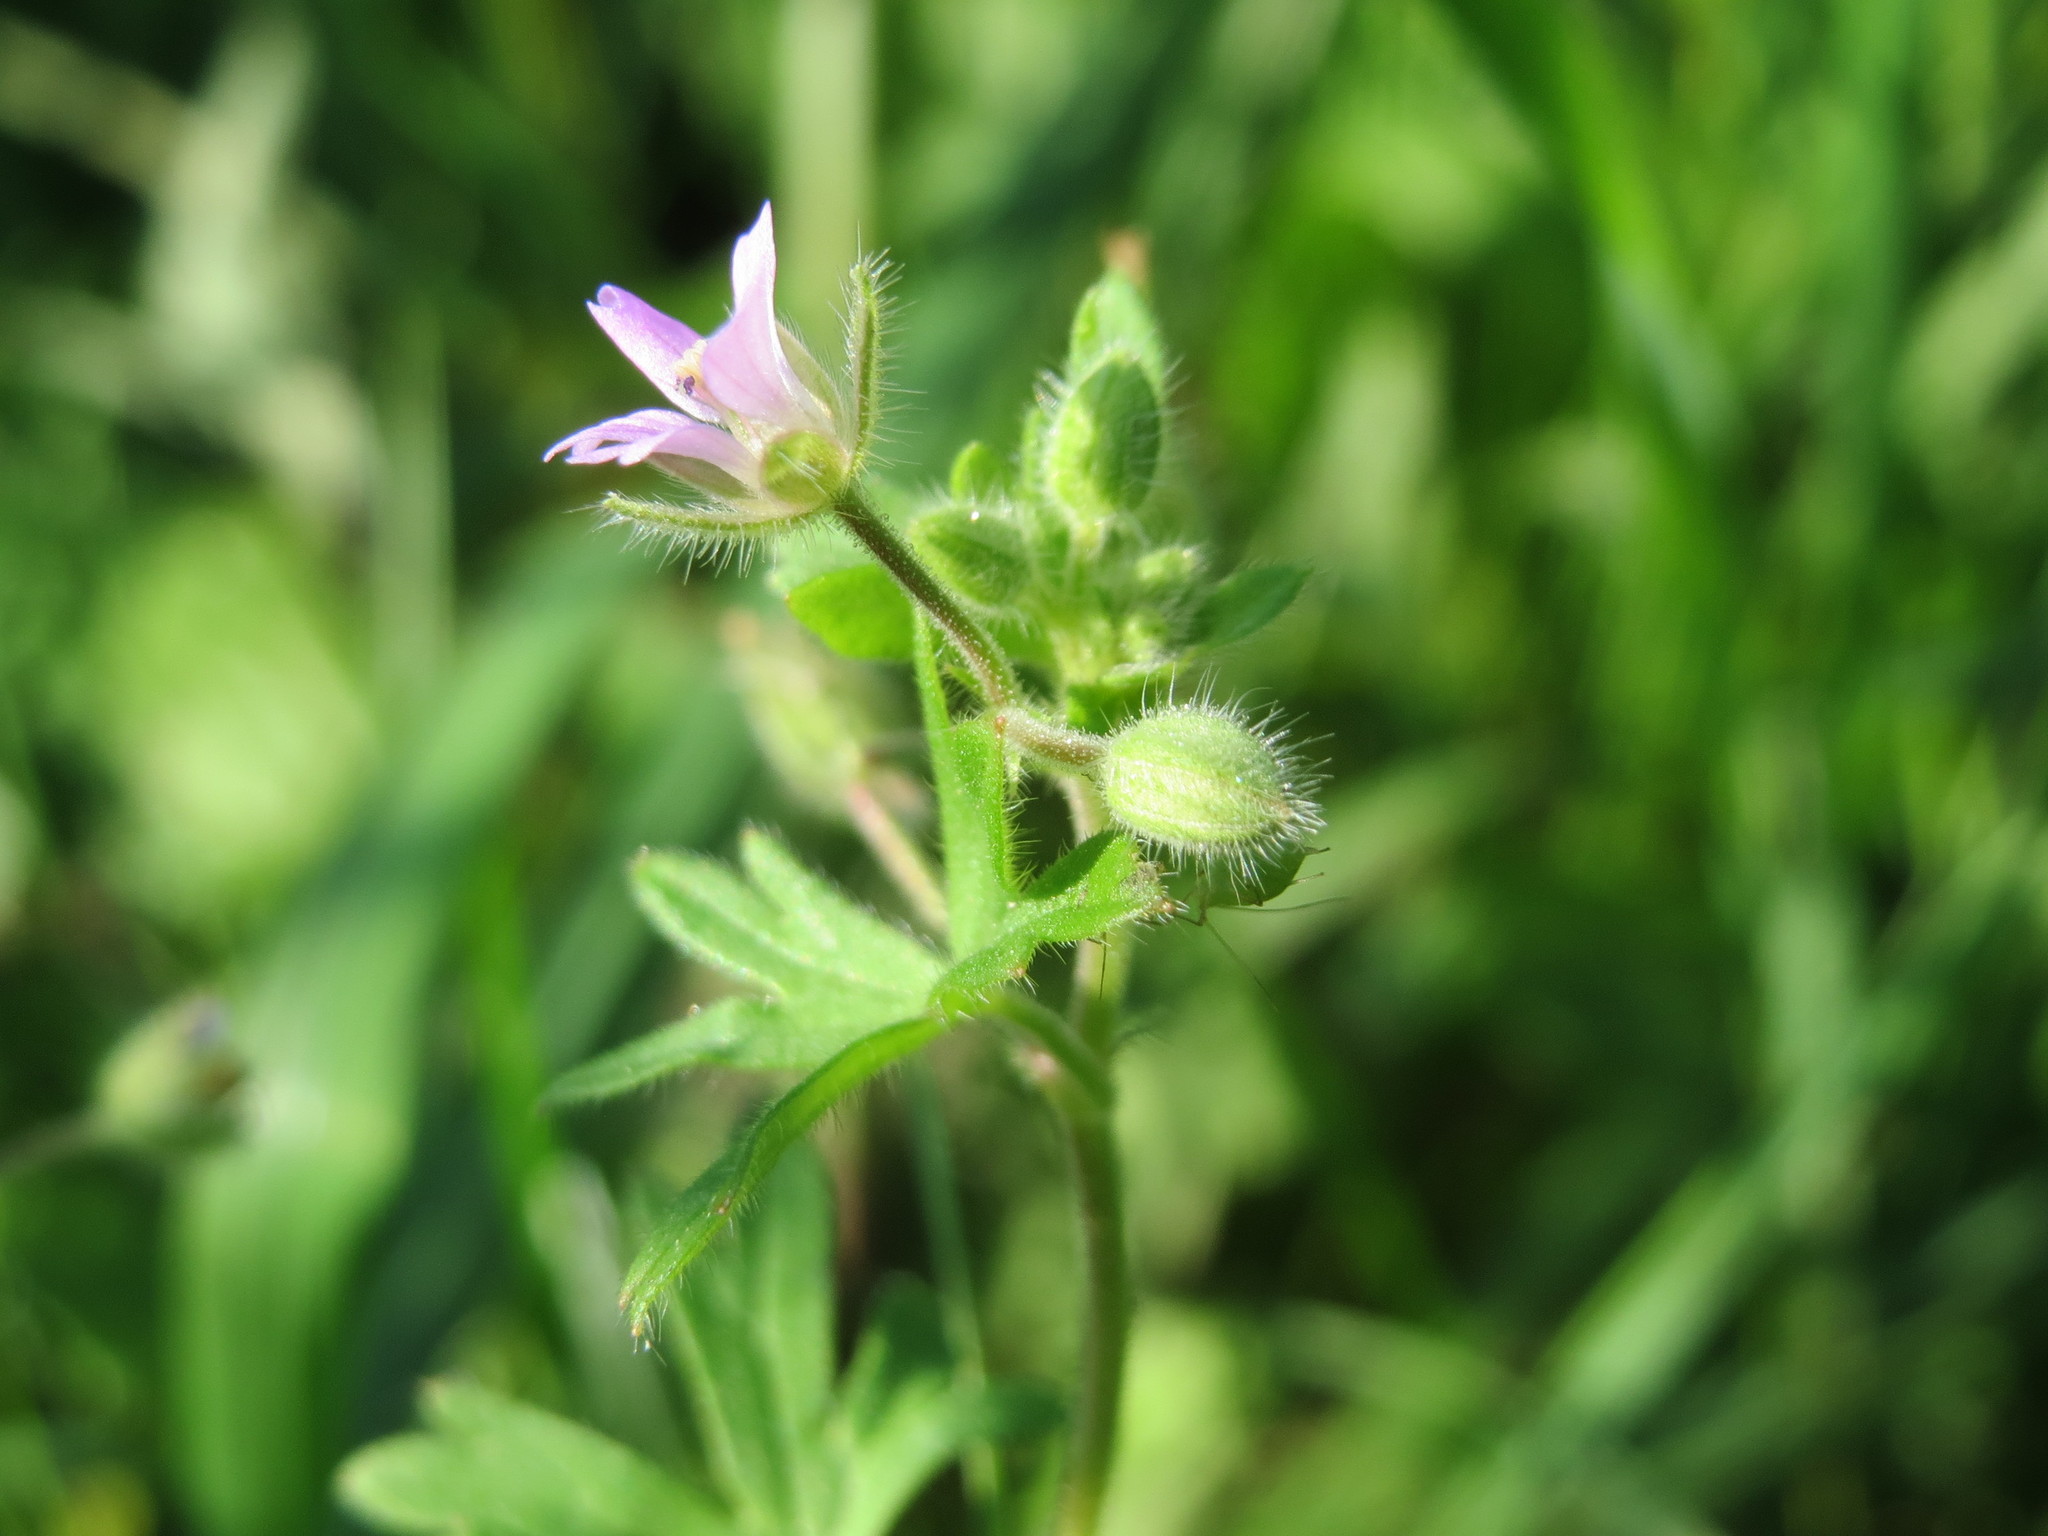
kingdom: Plantae
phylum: Tracheophyta
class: Magnoliopsida
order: Geraniales
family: Geraniaceae
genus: Geranium
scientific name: Geranium pusillum
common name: Small geranium
